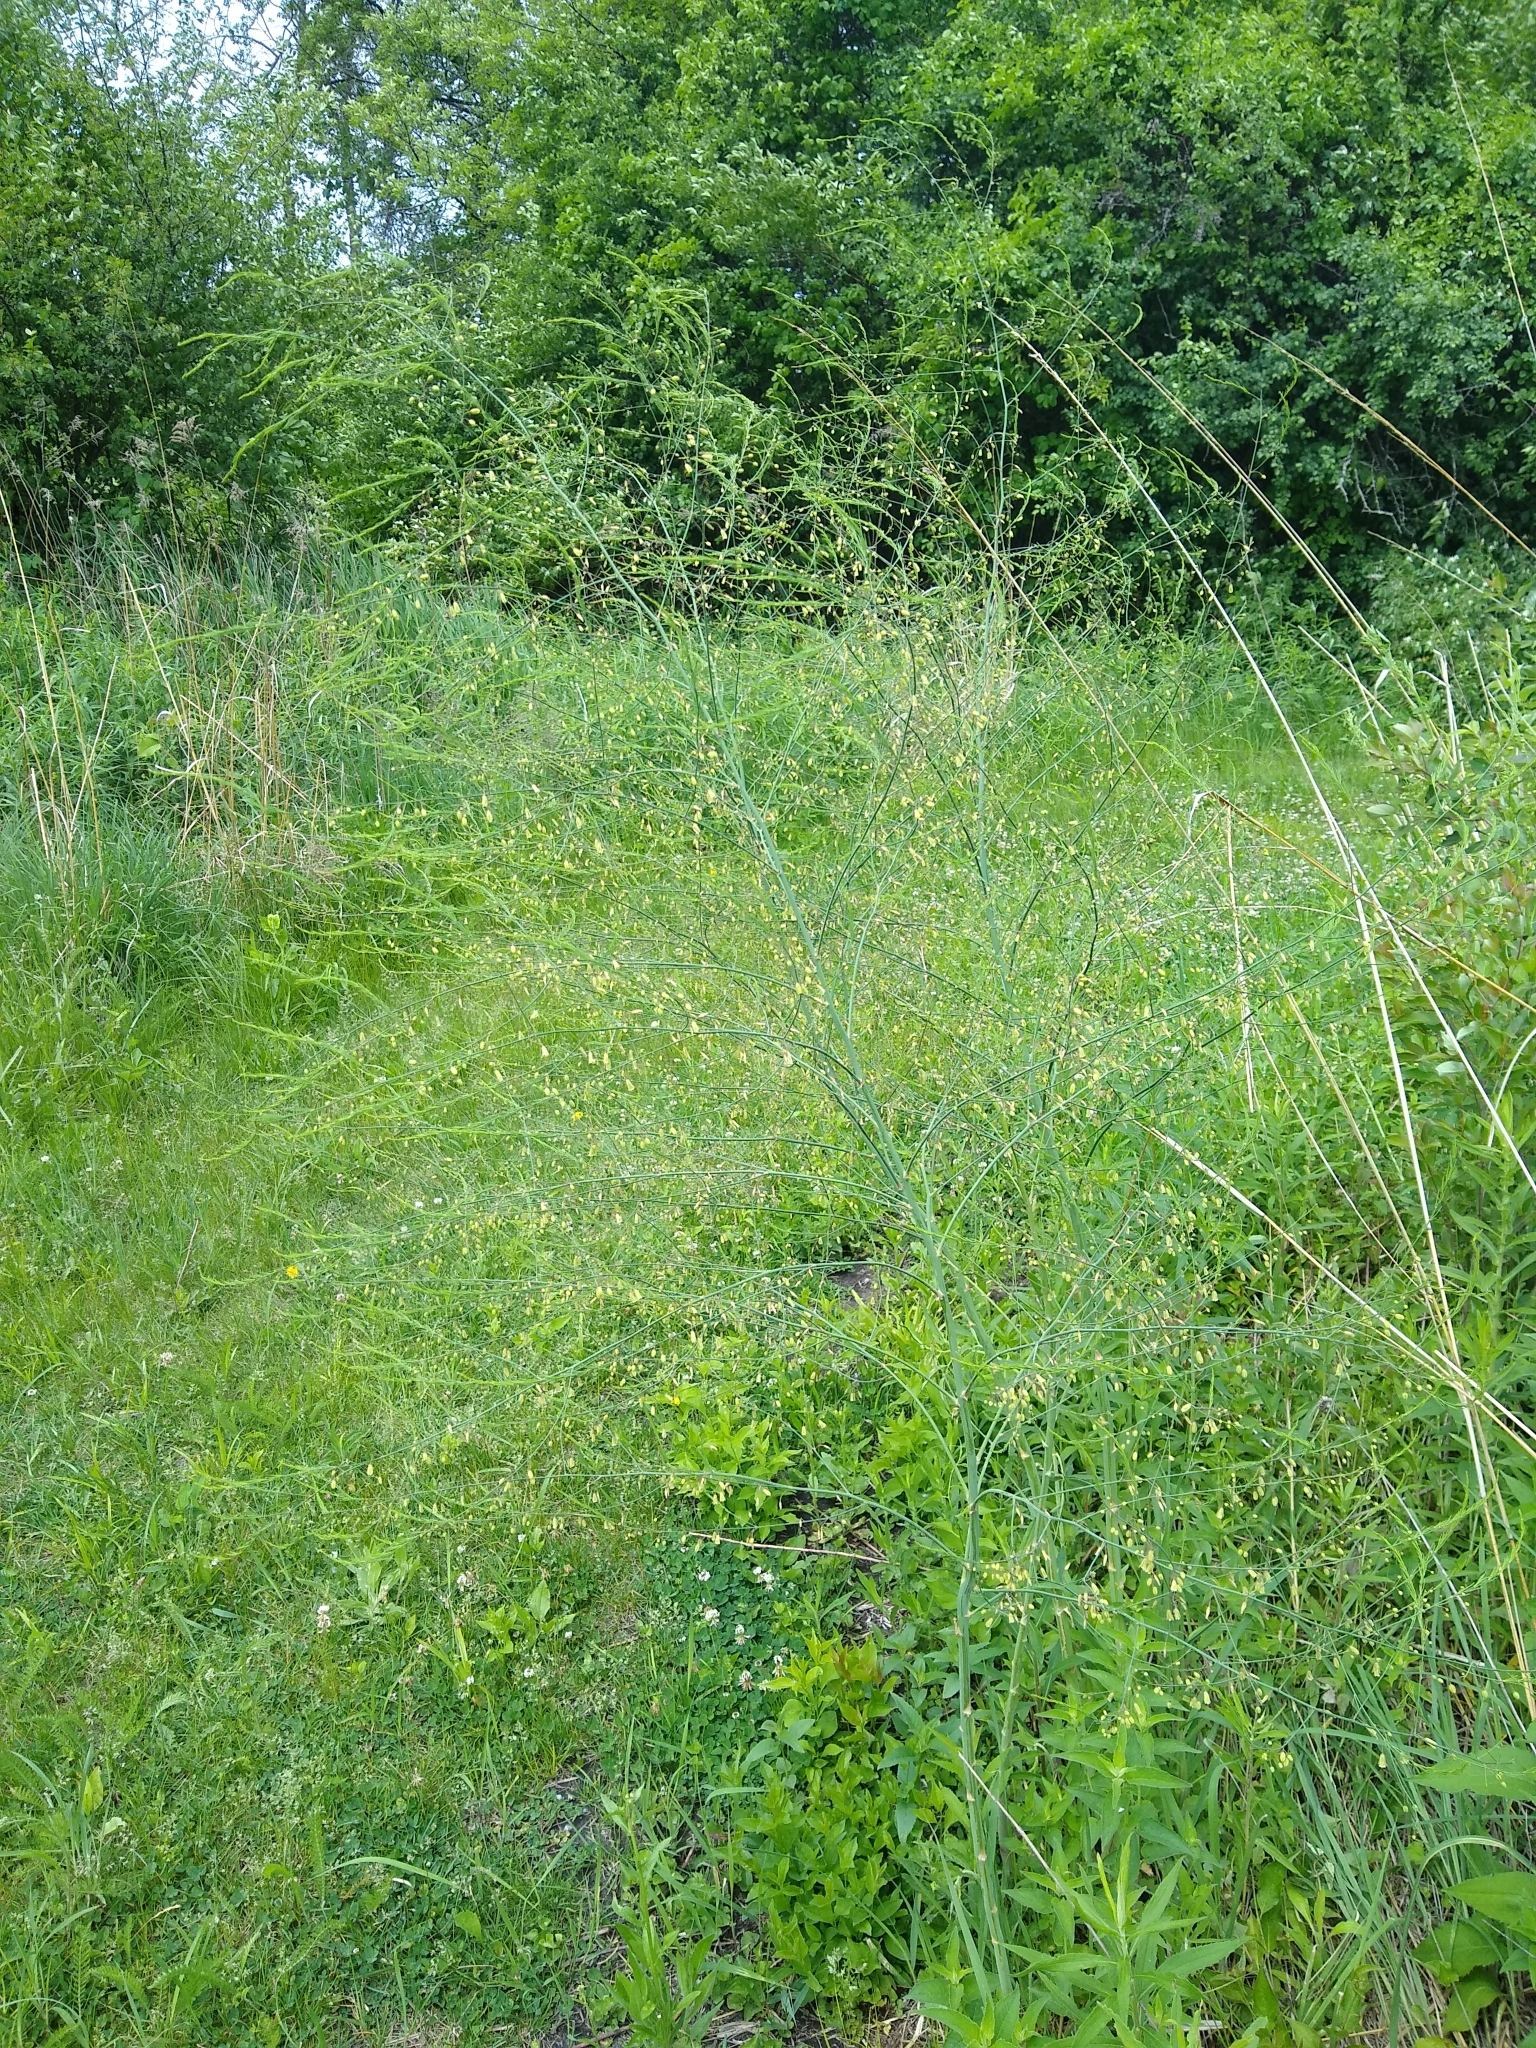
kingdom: Plantae
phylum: Tracheophyta
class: Liliopsida
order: Asparagales
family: Asparagaceae
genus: Asparagus
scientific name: Asparagus officinalis
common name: Garden asparagus
